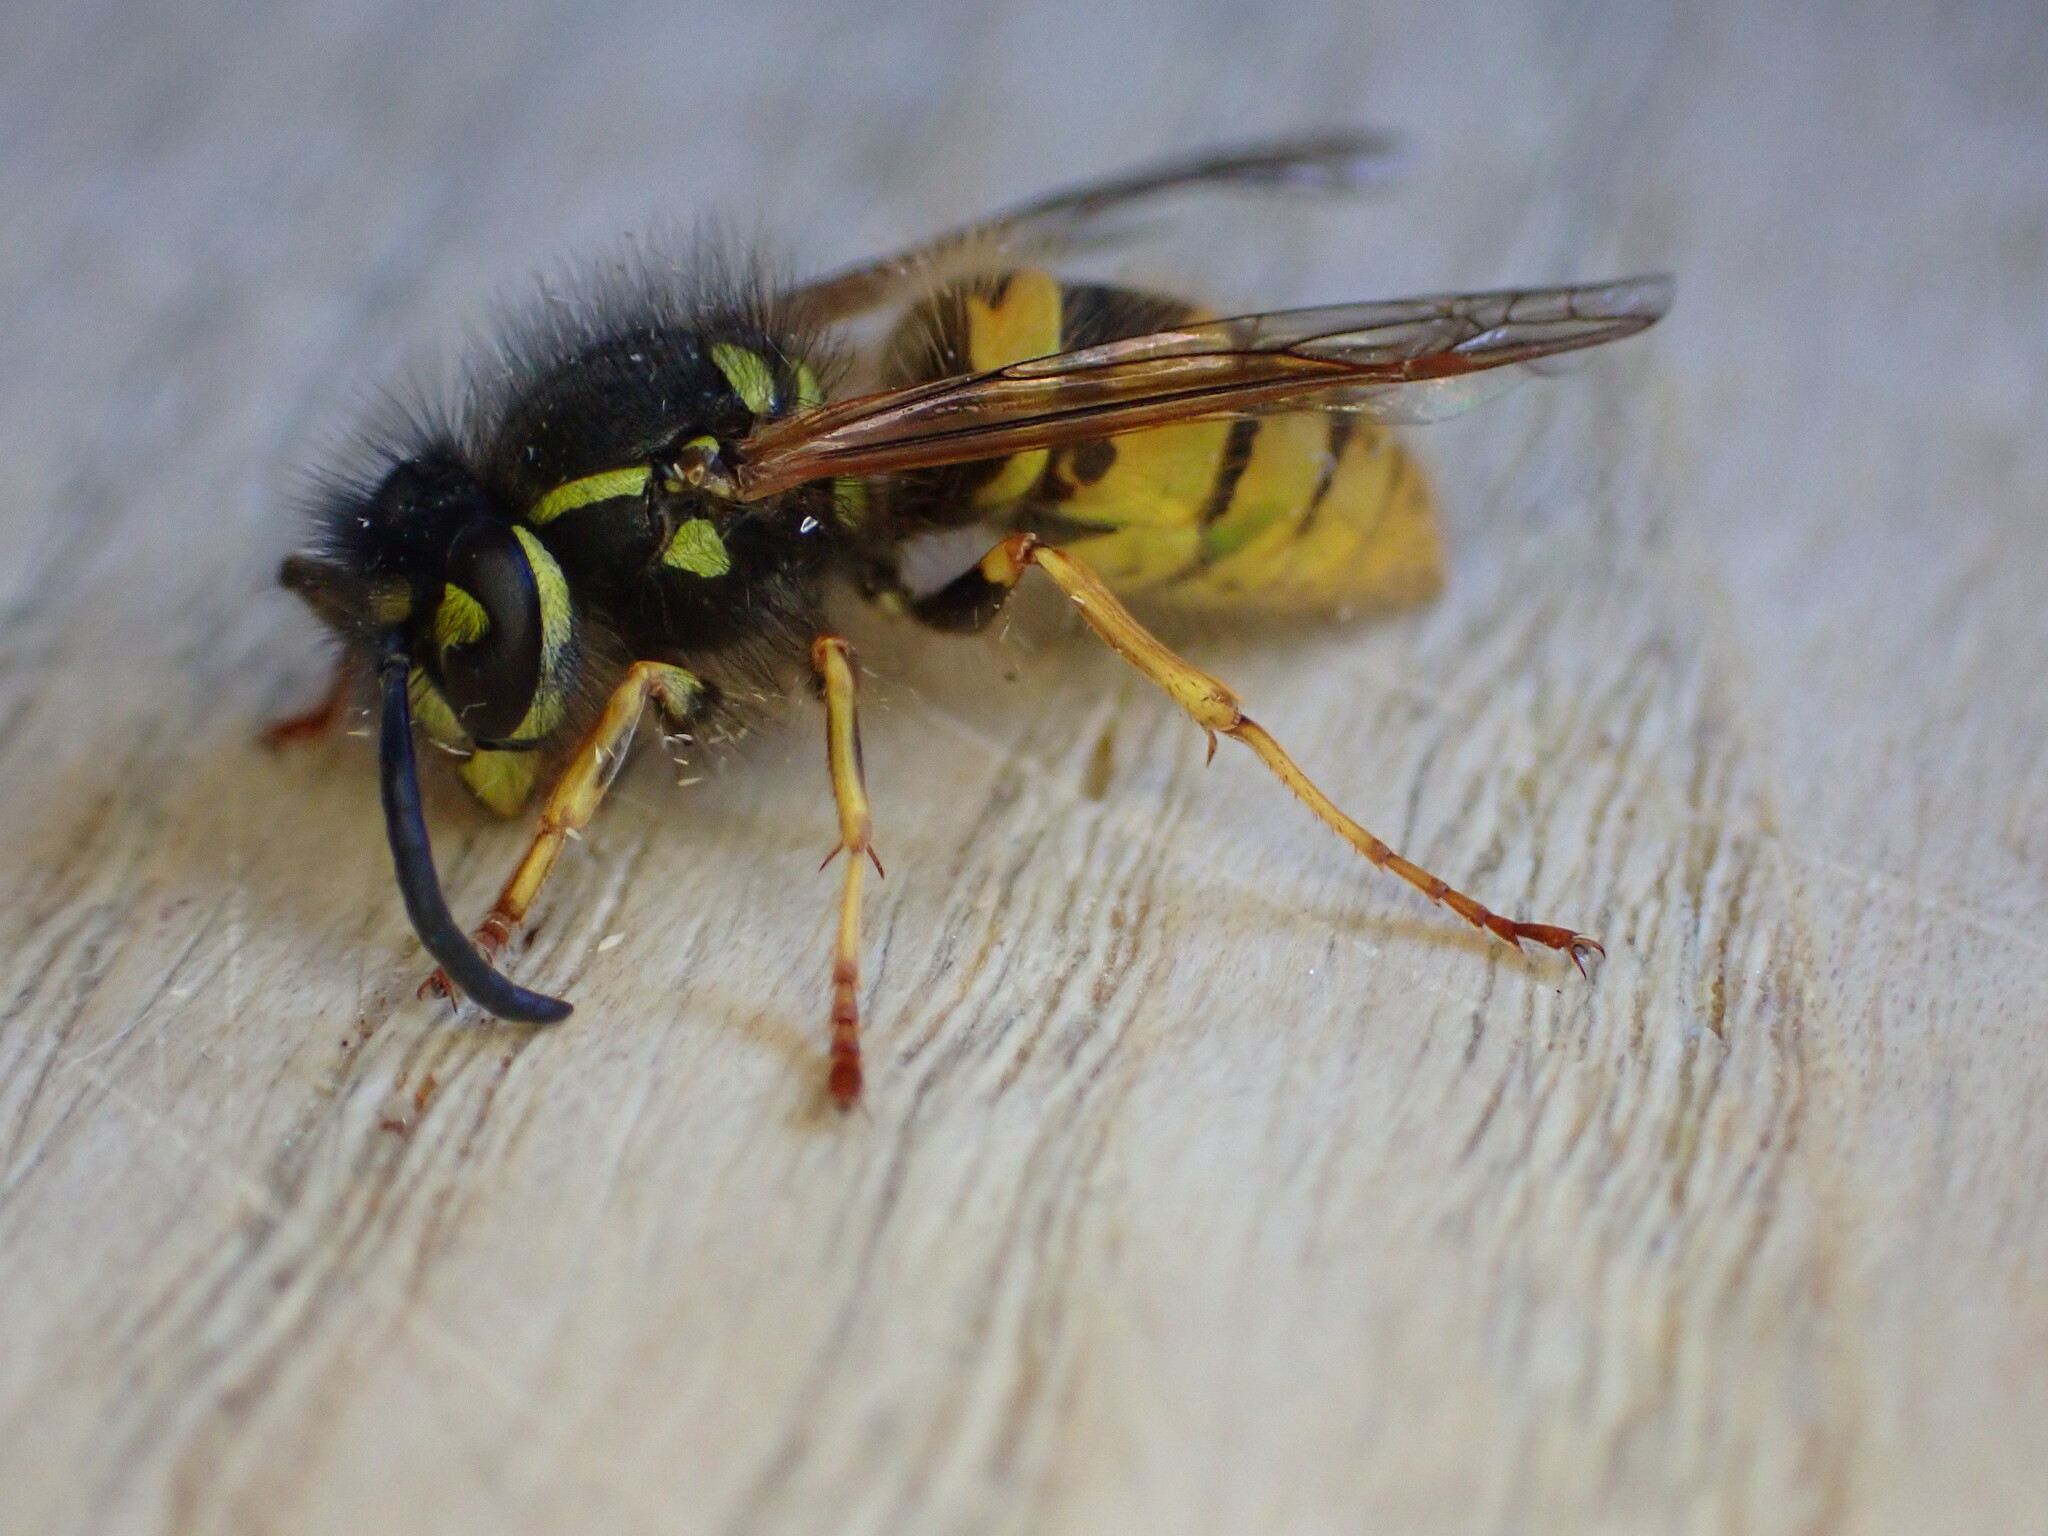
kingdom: Animalia
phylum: Arthropoda
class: Insecta
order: Hymenoptera
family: Vespidae
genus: Vespula
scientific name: Vespula vulgaris
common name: Common wasp
